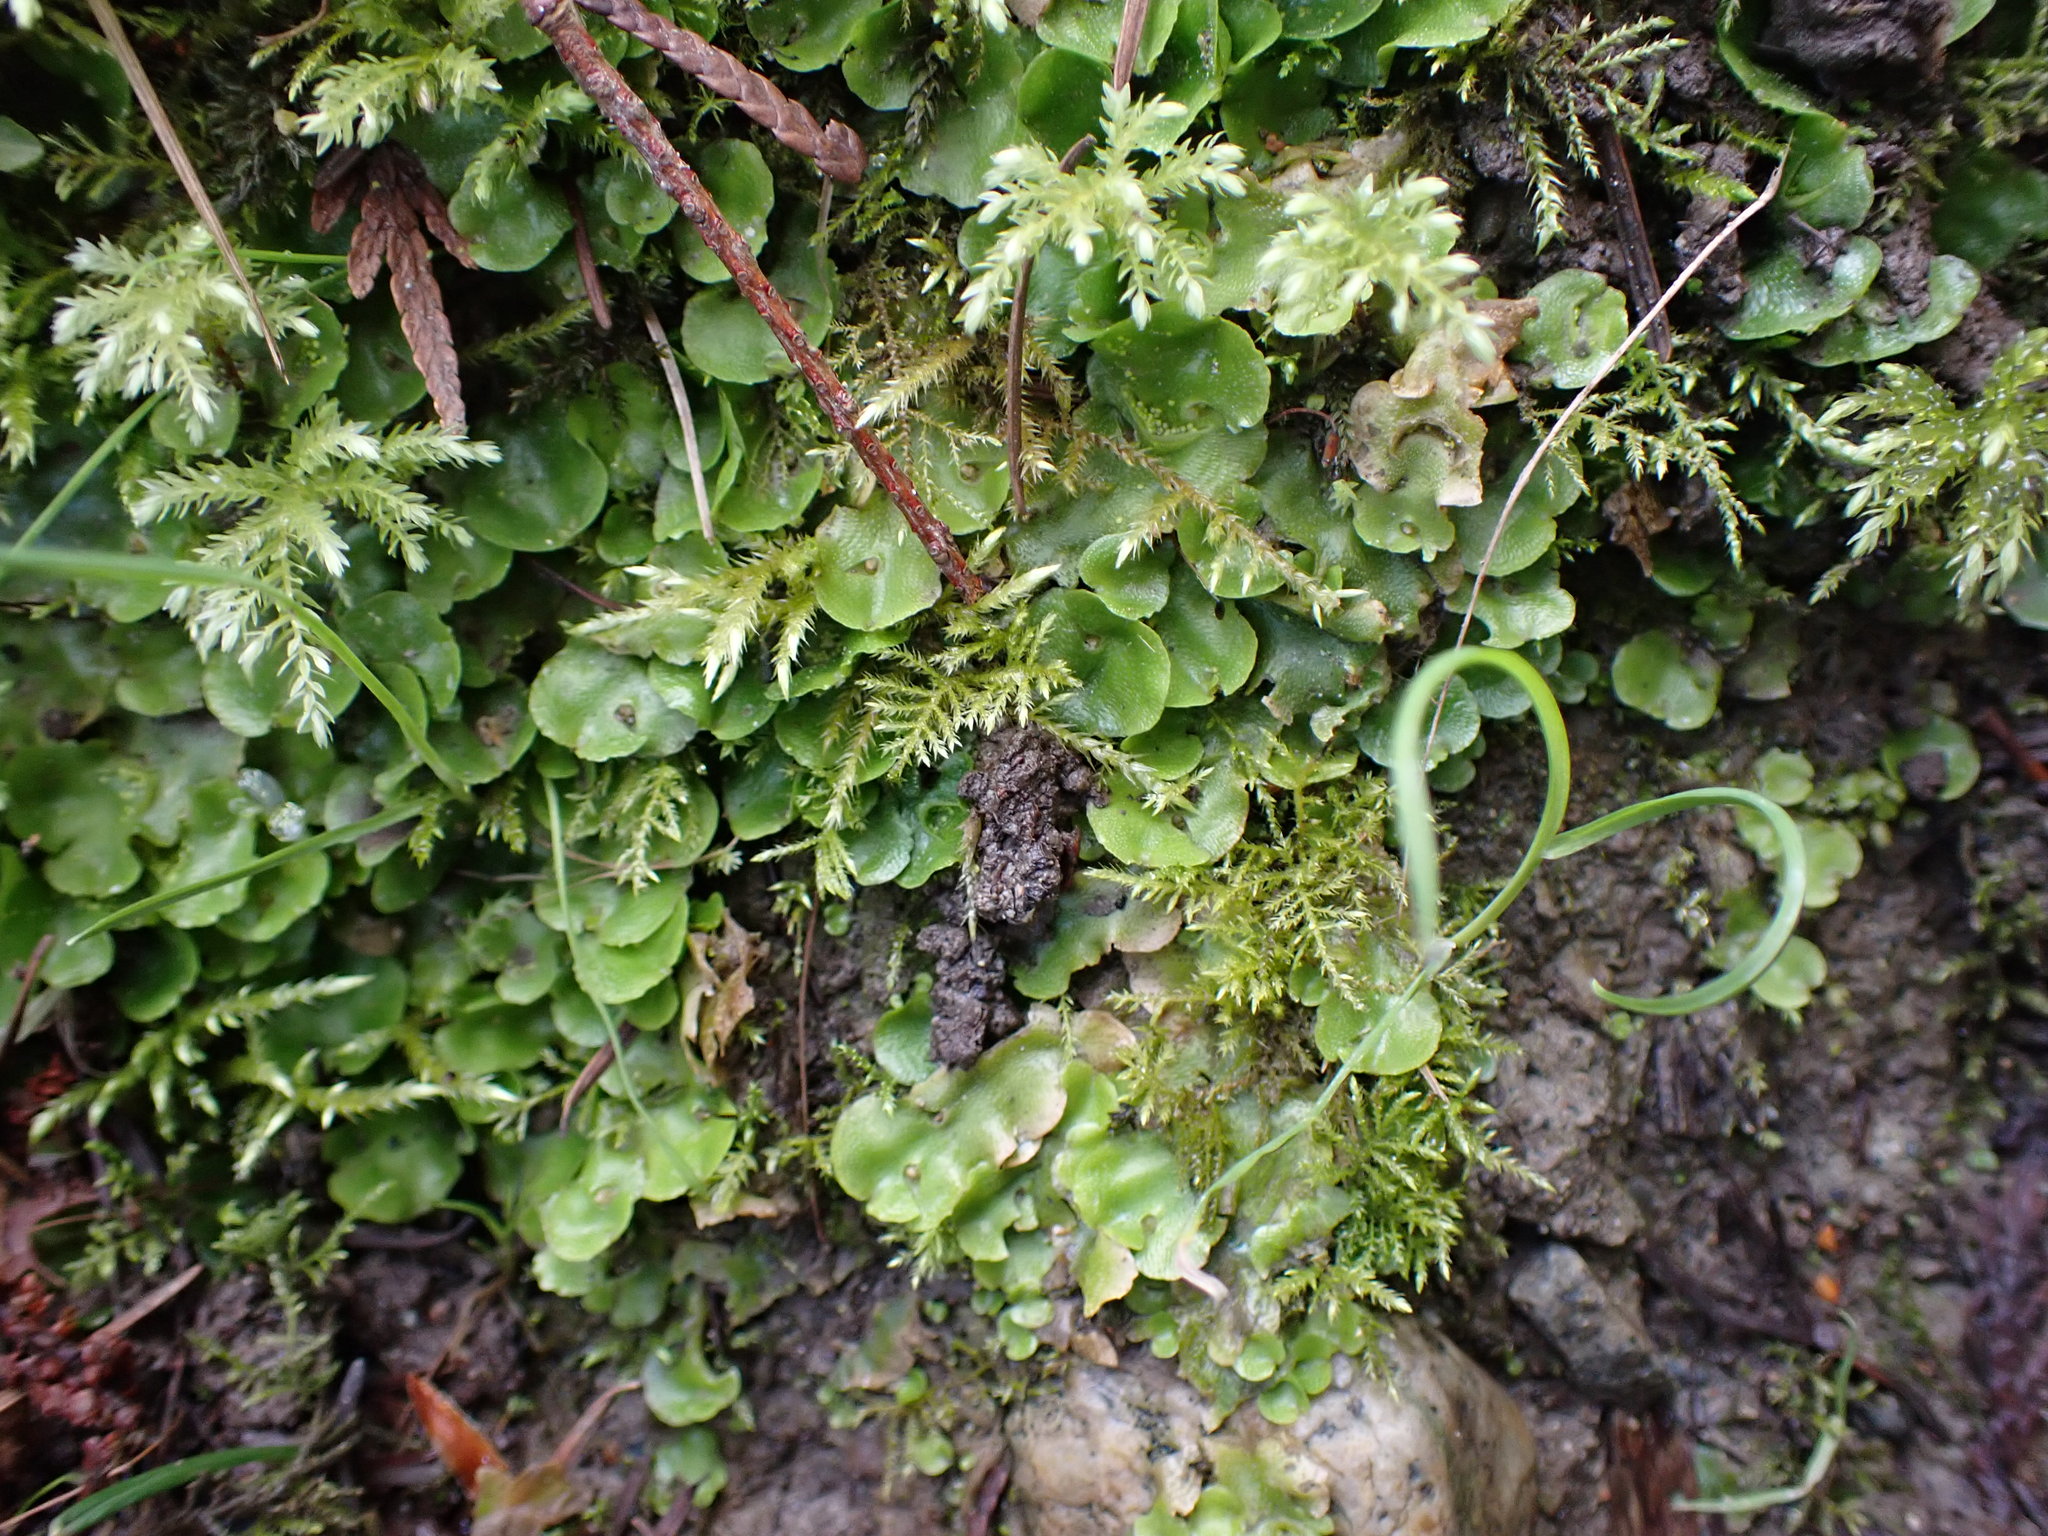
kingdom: Plantae
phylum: Marchantiophyta
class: Marchantiopsida
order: Lunulariales
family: Lunulariaceae
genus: Lunularia
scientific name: Lunularia cruciata
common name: Crescent-cup liverwort
